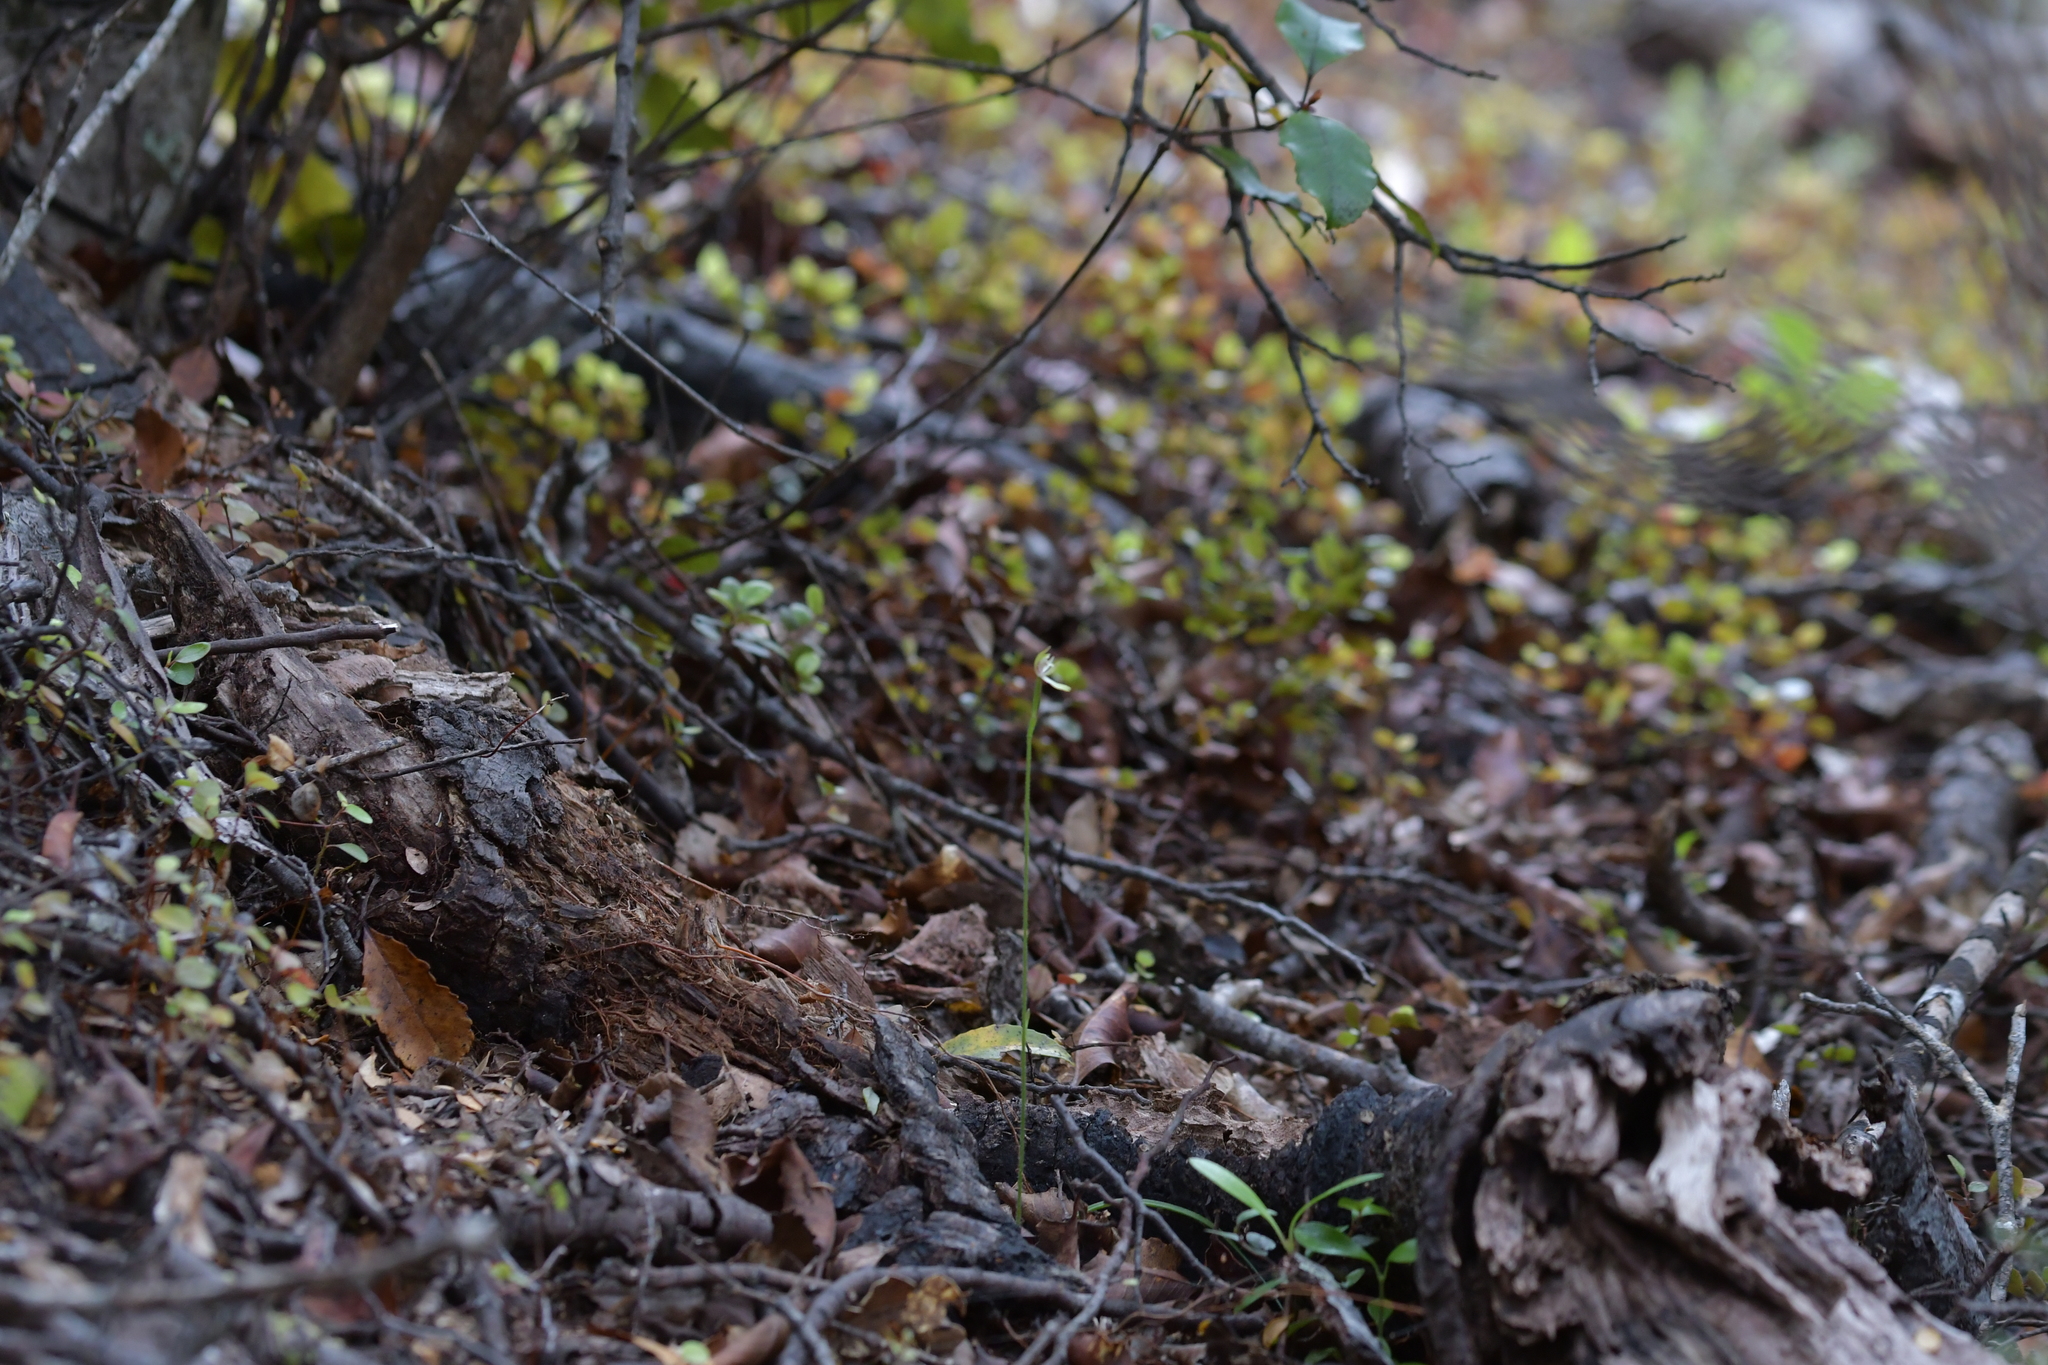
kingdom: Plantae
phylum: Tracheophyta
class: Liliopsida
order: Asparagales
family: Orchidaceae
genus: Caladenia
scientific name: Caladenia chlorostyla
